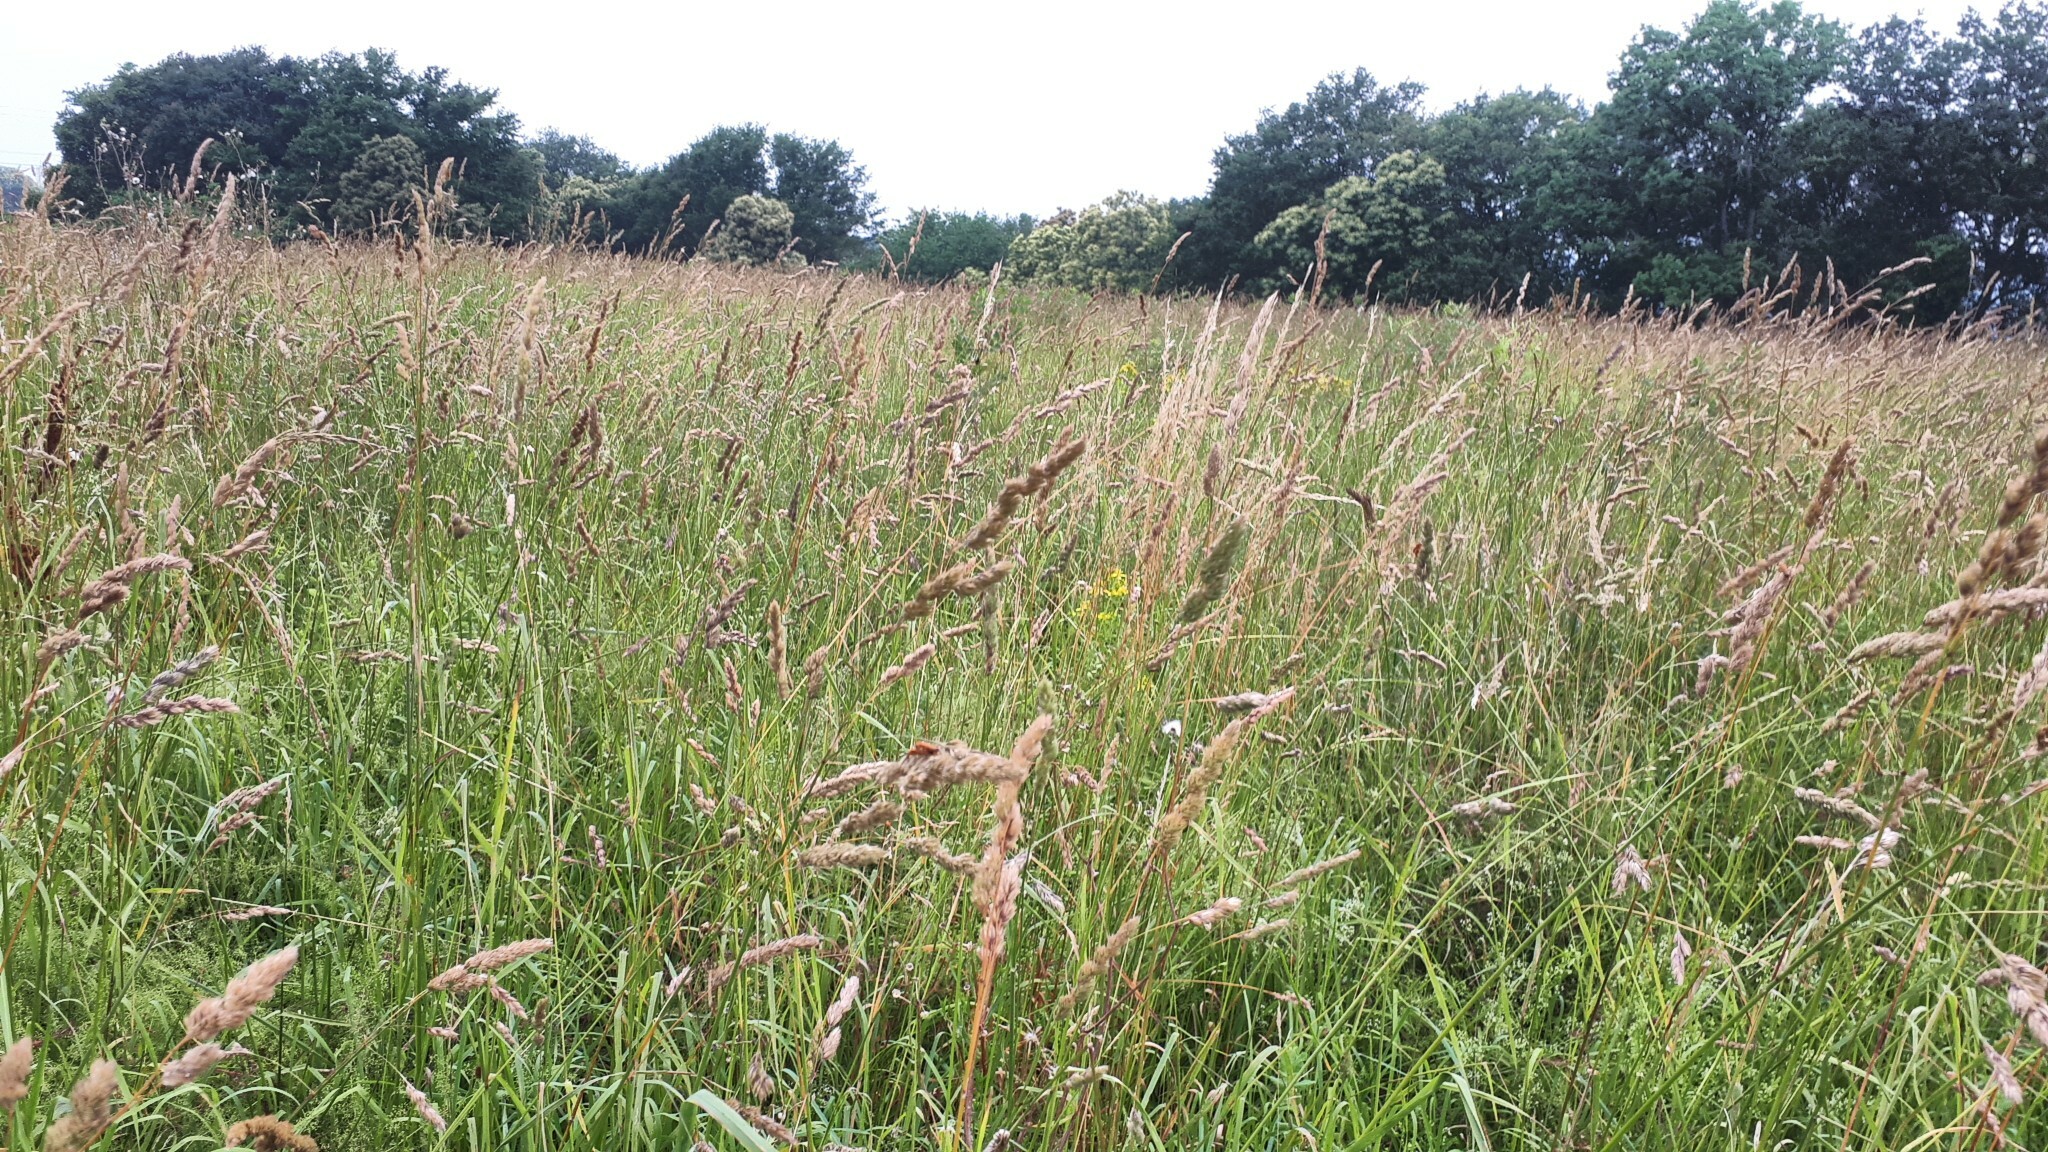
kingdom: Plantae
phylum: Tracheophyta
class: Liliopsida
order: Poales
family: Poaceae
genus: Dactylis
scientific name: Dactylis glomerata
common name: Orchardgrass
